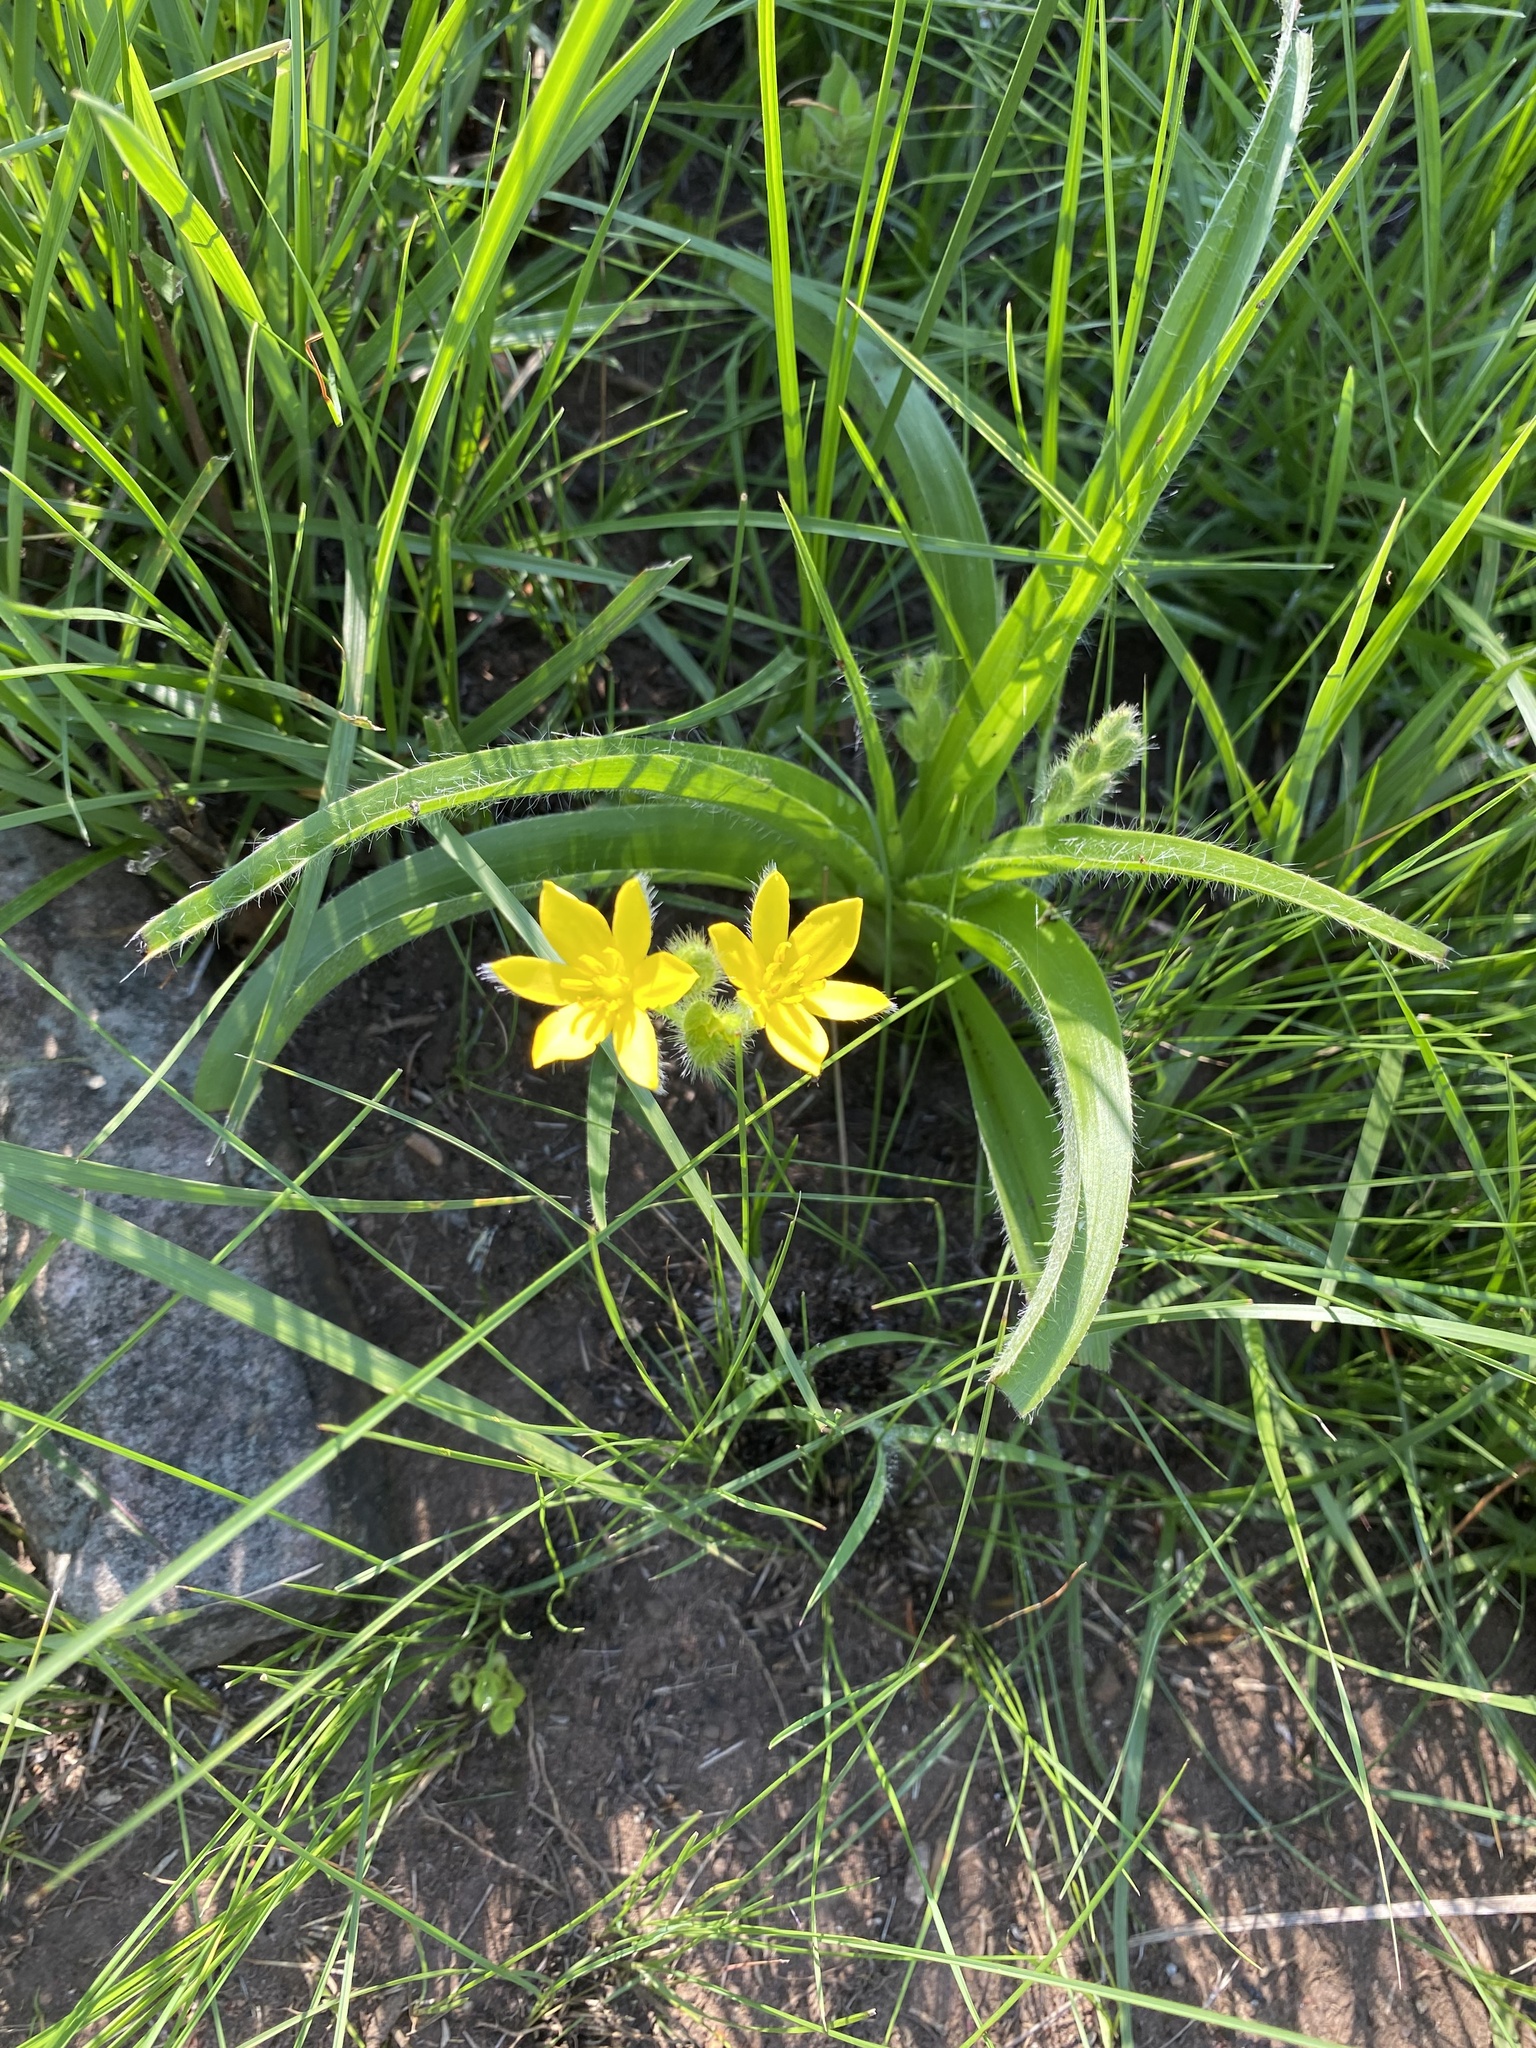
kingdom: Plantae
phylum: Tracheophyta
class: Liliopsida
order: Asparagales
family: Hypoxidaceae
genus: Hypoxis
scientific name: Hypoxis hemerocallidea
